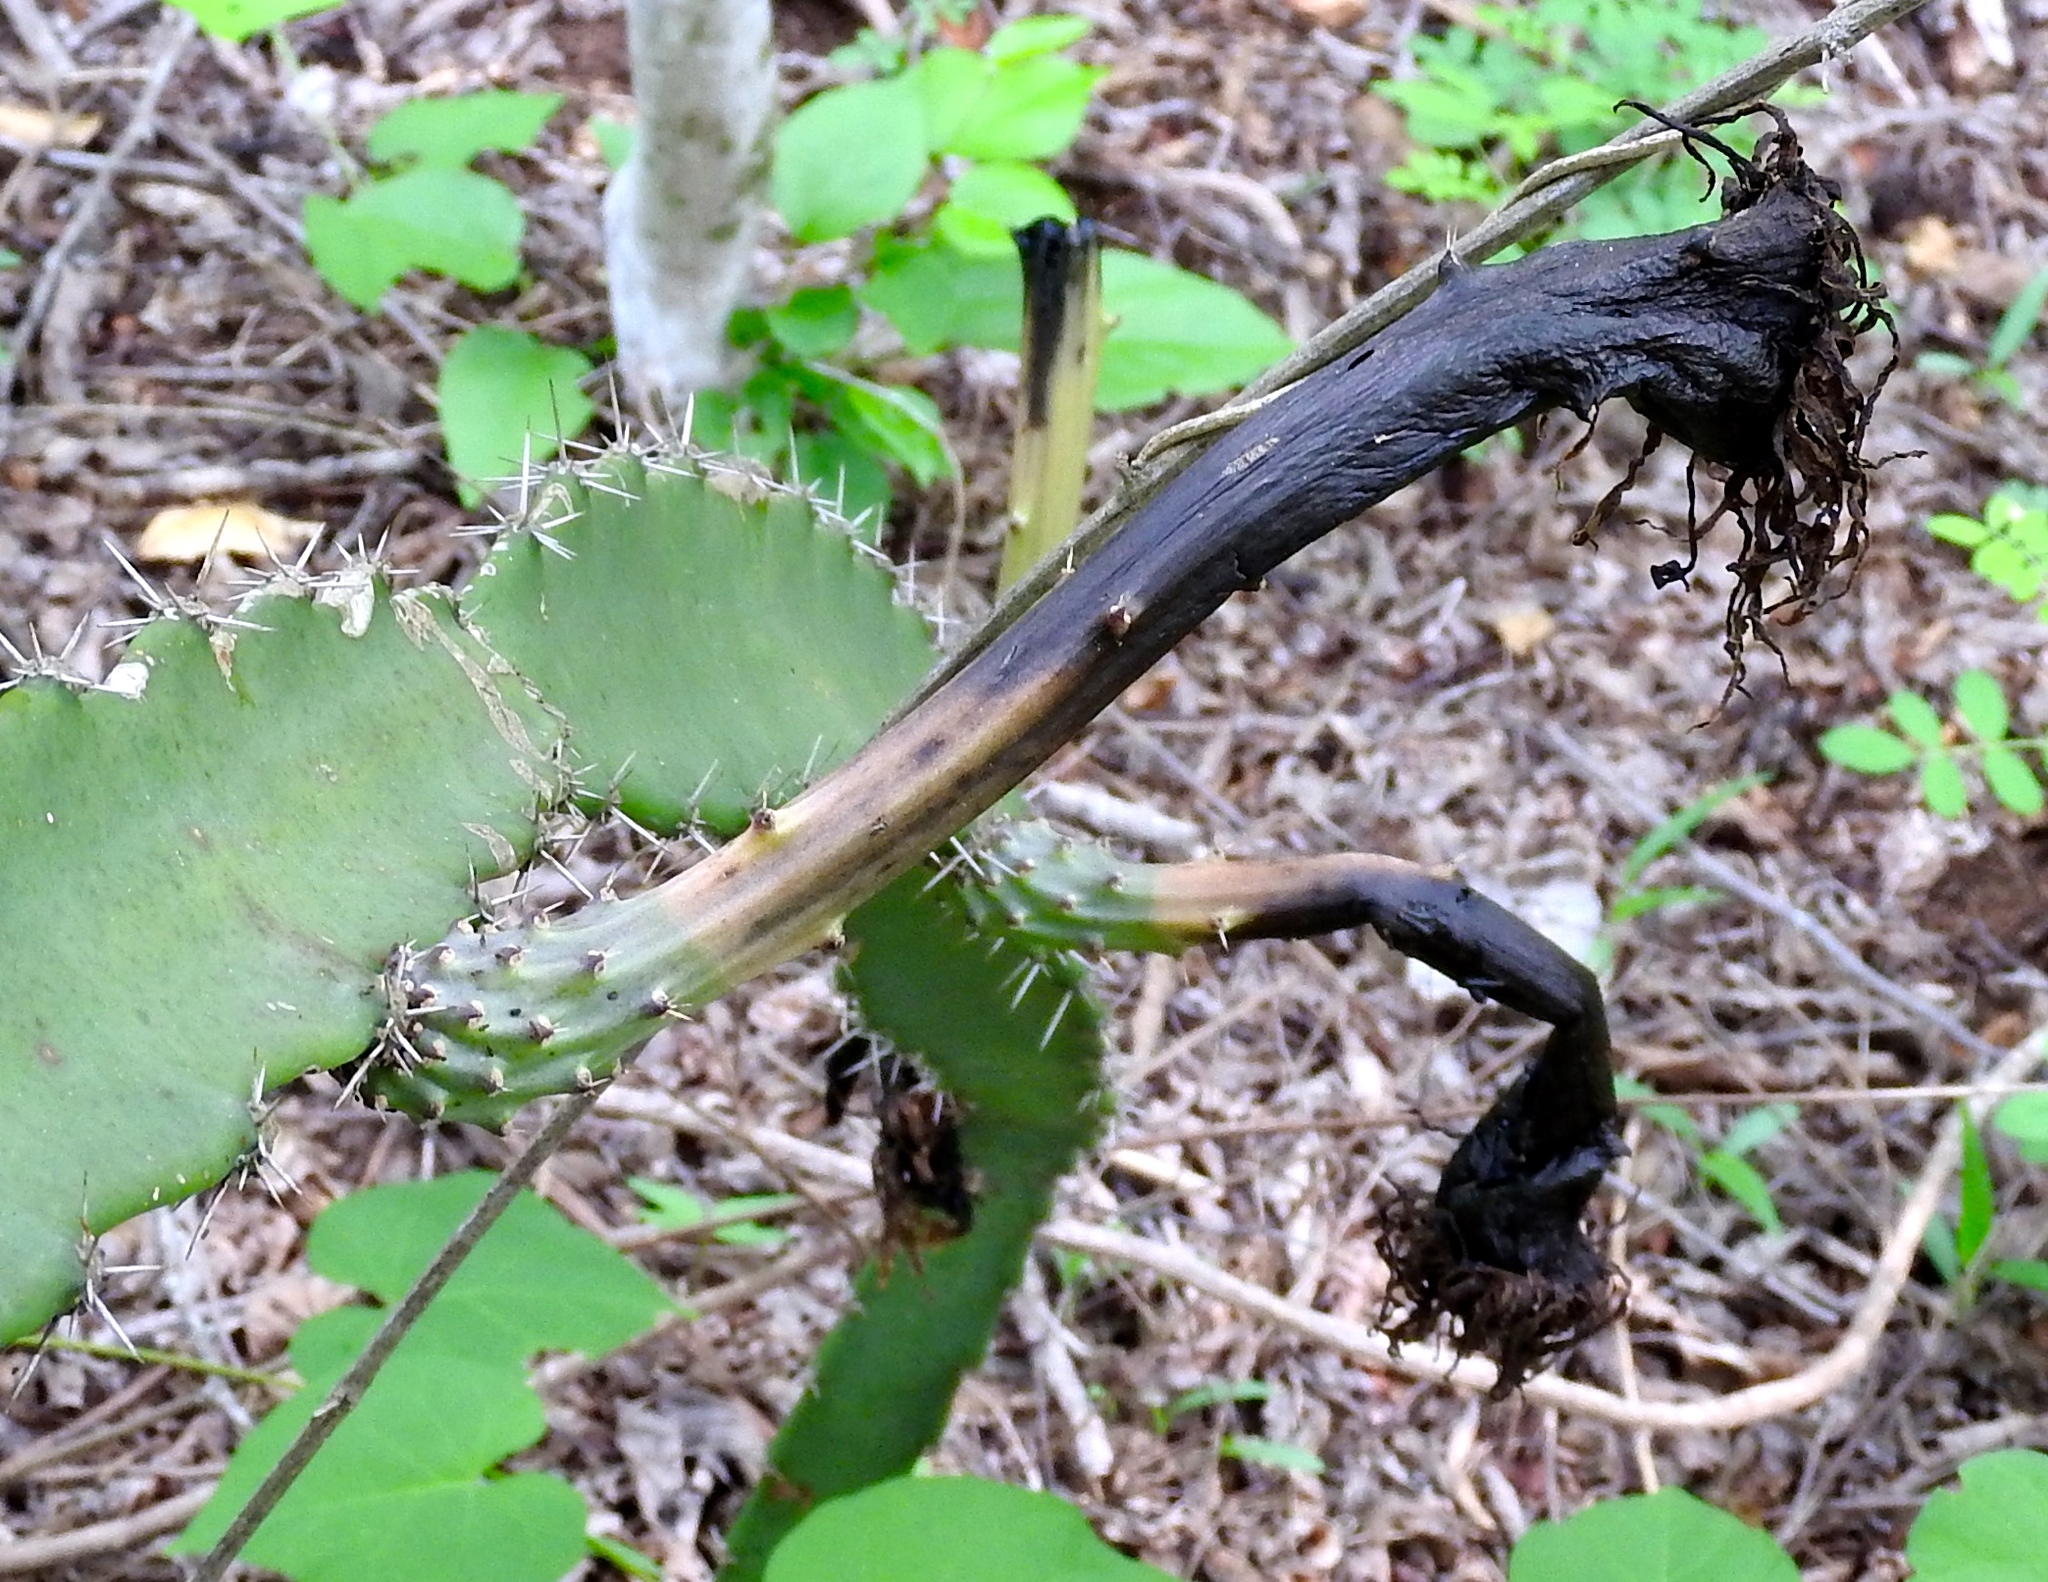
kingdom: Plantae
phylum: Tracheophyta
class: Magnoliopsida
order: Caryophyllales
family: Cactaceae
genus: Acanthocereus
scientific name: Acanthocereus tetragonus
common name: Triangle cactus
